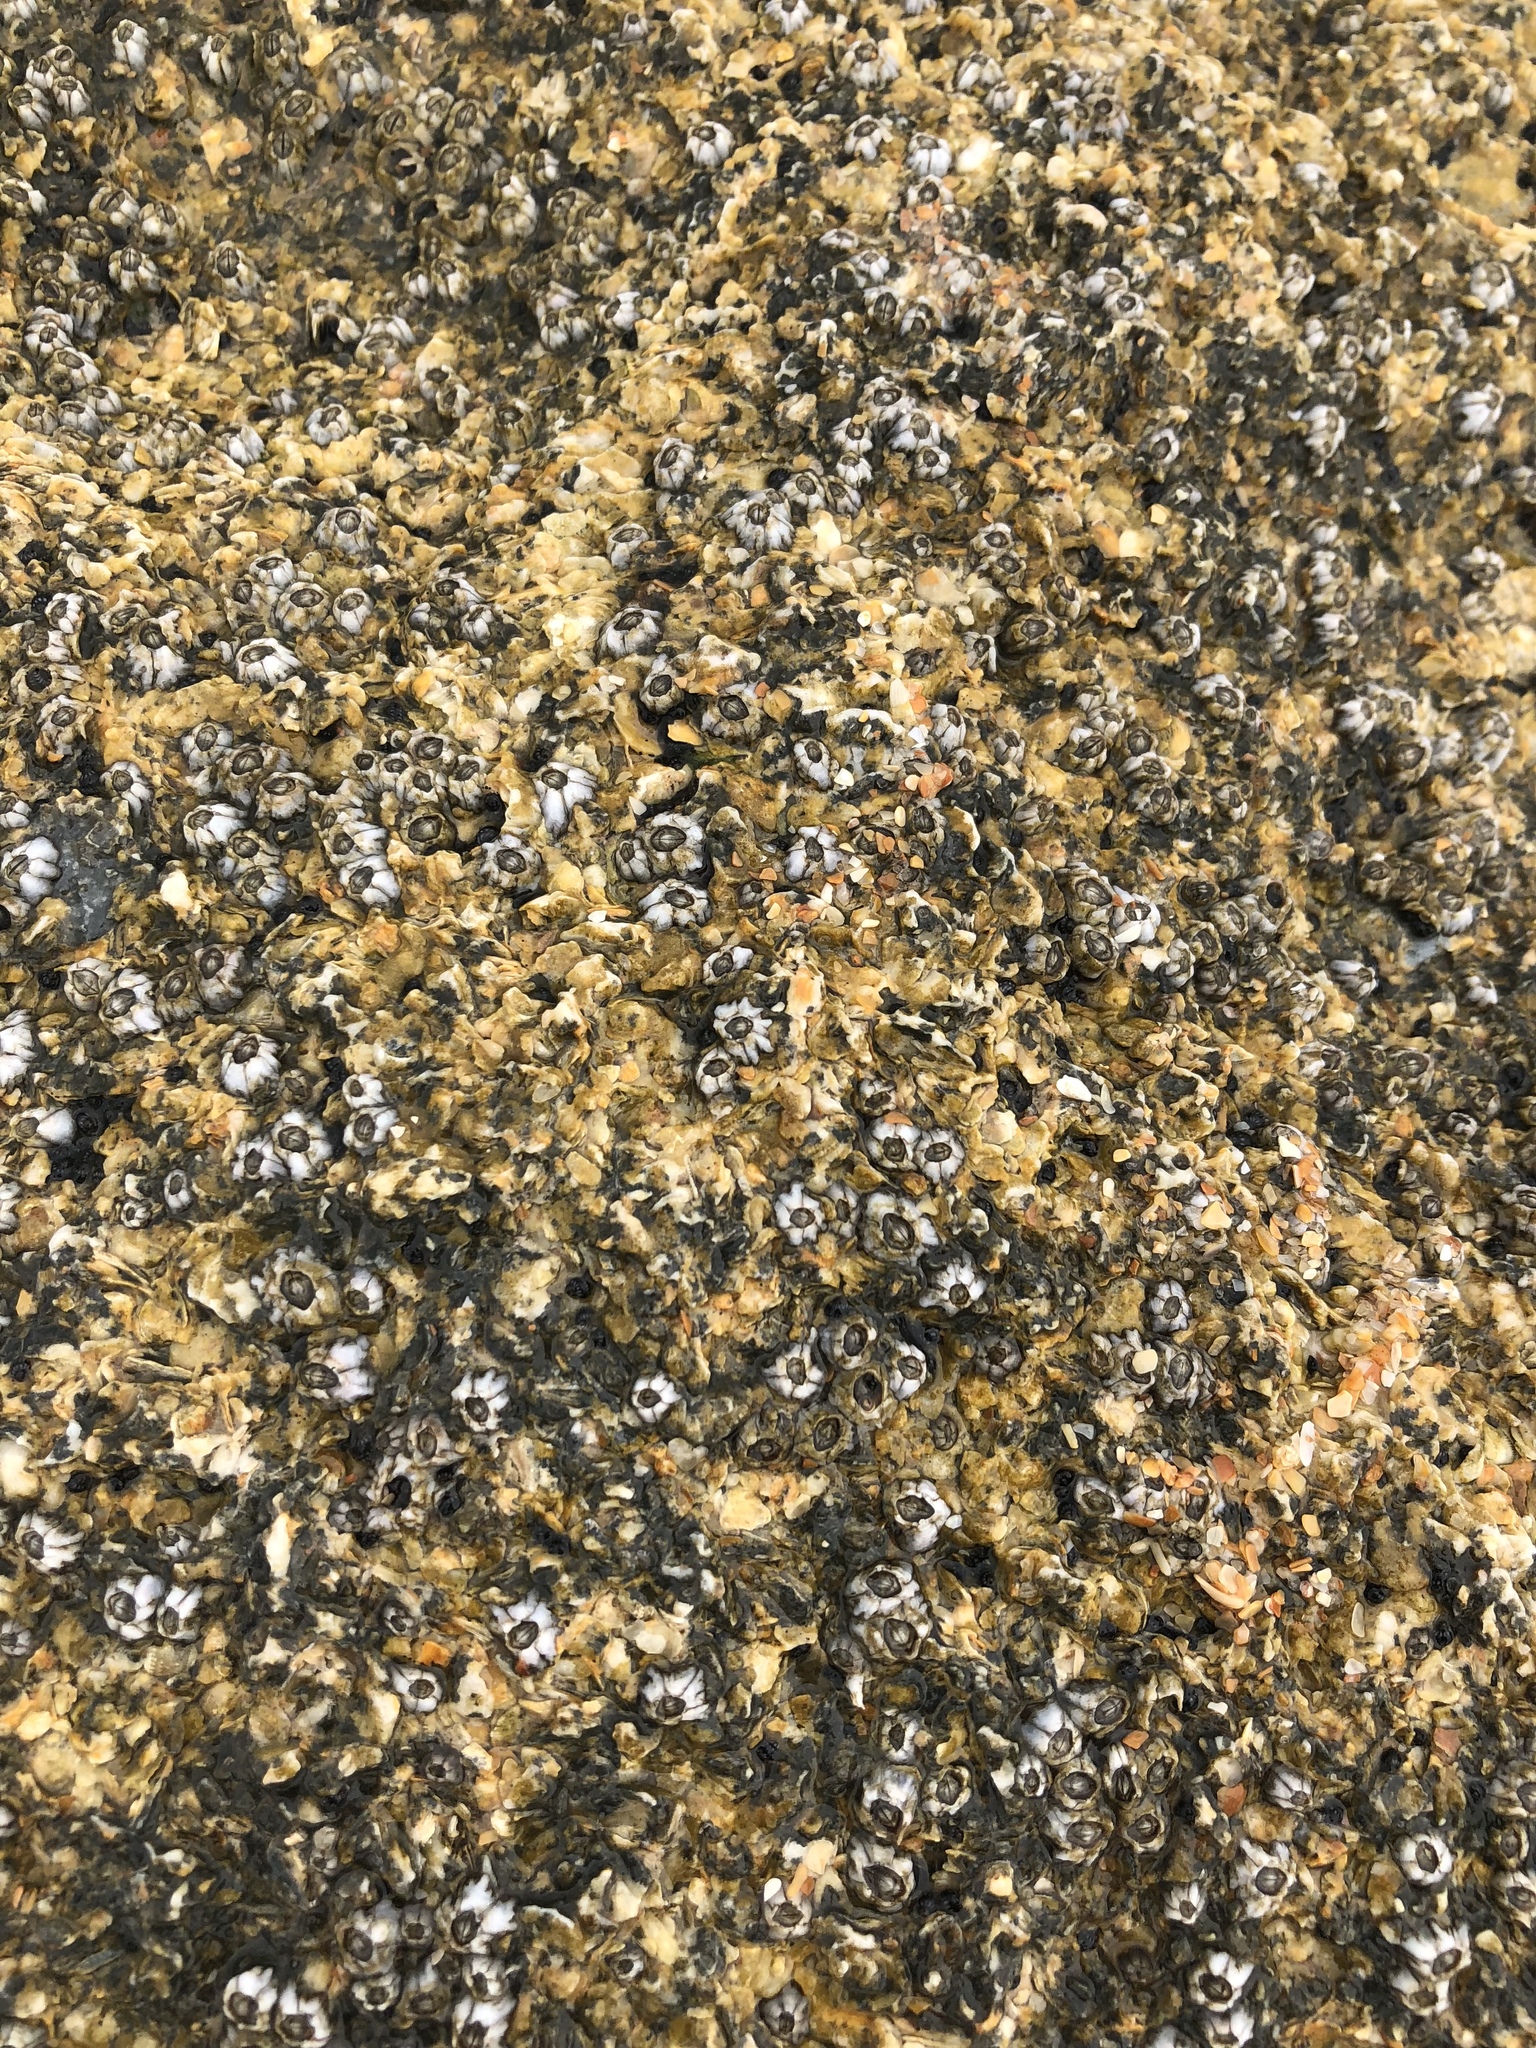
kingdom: Animalia
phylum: Arthropoda
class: Maxillopoda
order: Sessilia
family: Chthamalidae
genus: Chthamalus
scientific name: Chthamalus fragilis
